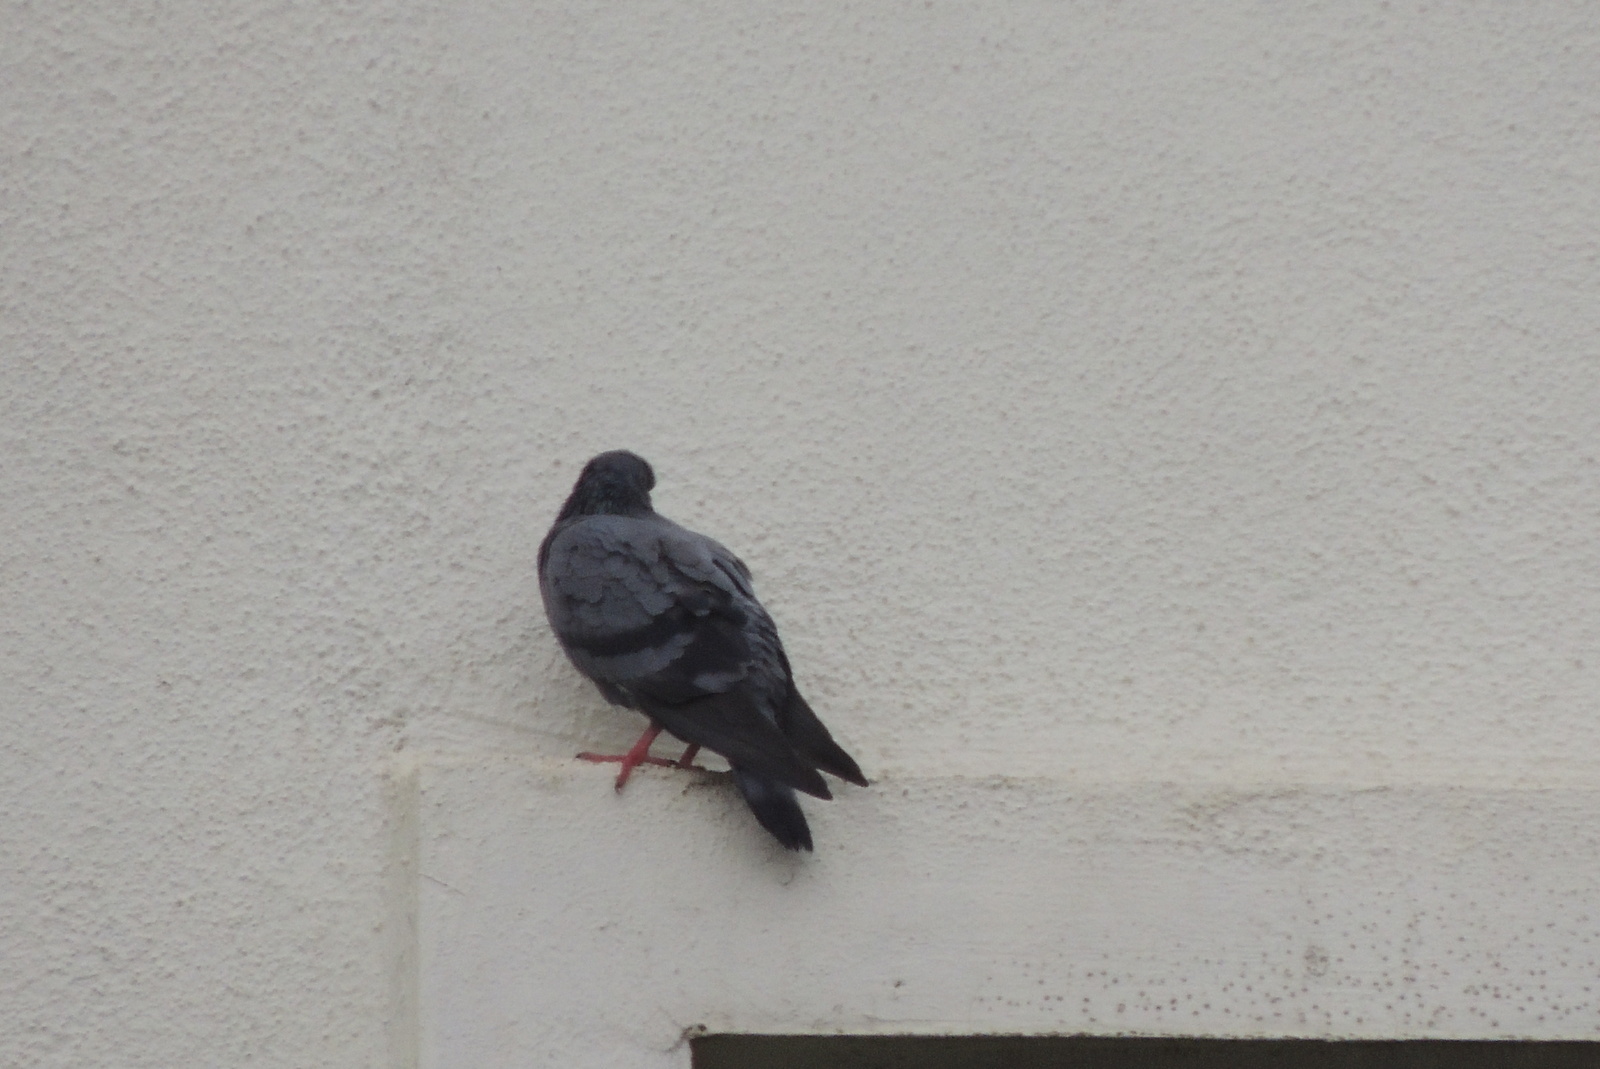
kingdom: Animalia
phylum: Chordata
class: Aves
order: Columbiformes
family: Columbidae
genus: Columba
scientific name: Columba livia
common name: Rock pigeon
